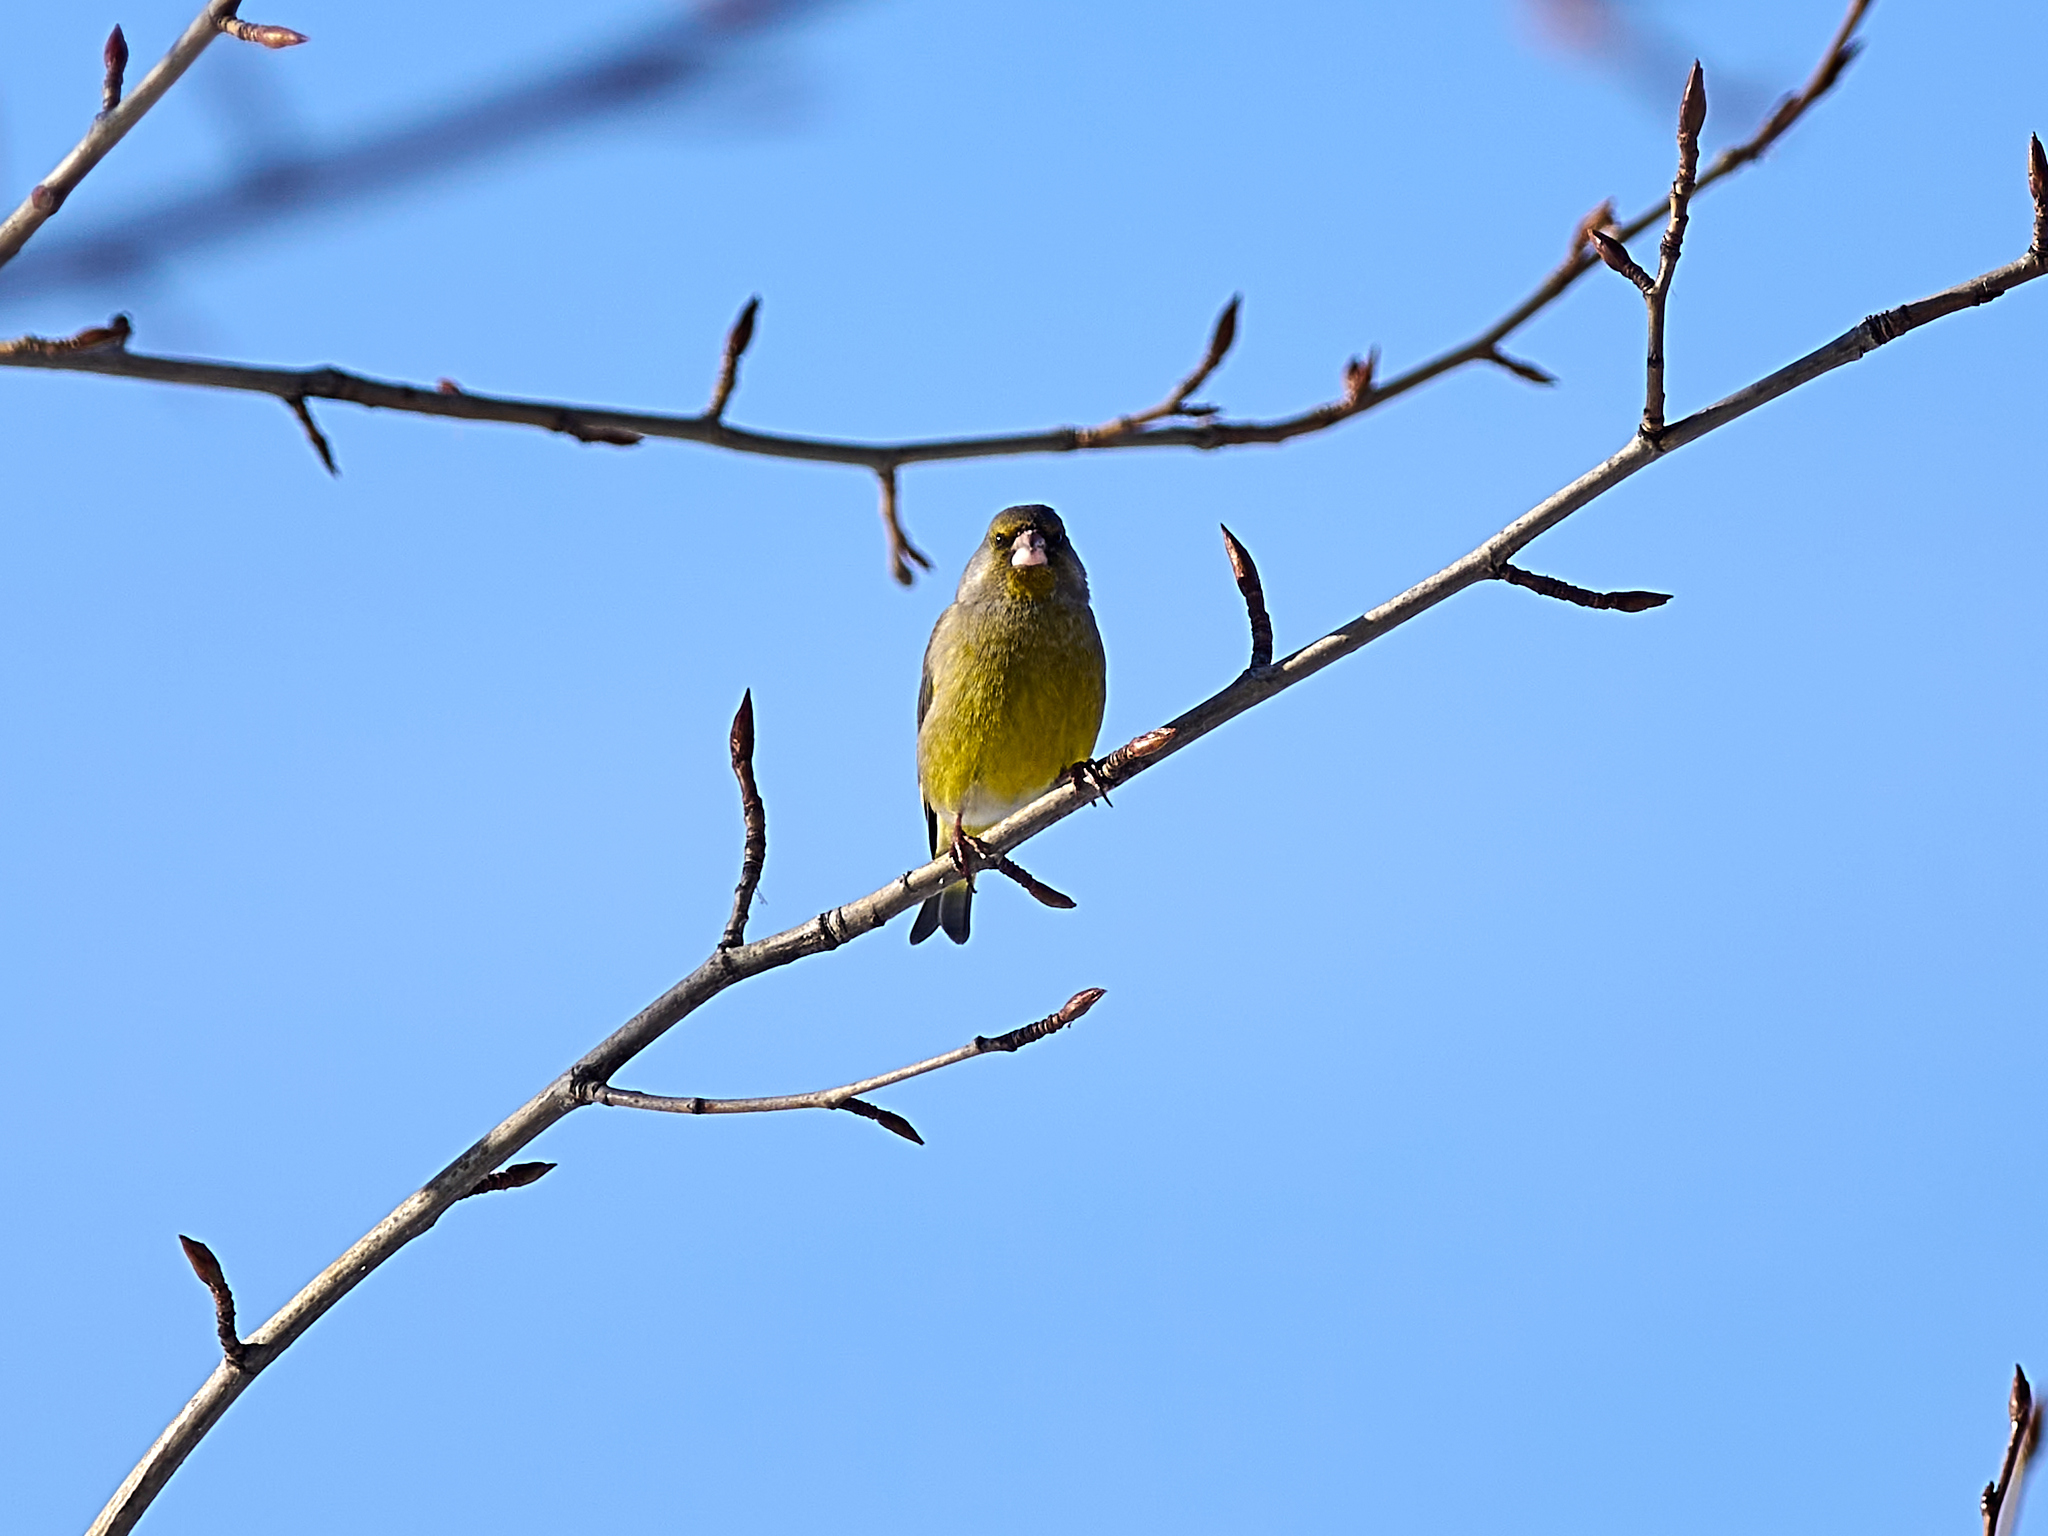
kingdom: Plantae
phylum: Tracheophyta
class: Liliopsida
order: Poales
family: Poaceae
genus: Chloris
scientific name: Chloris chloris
